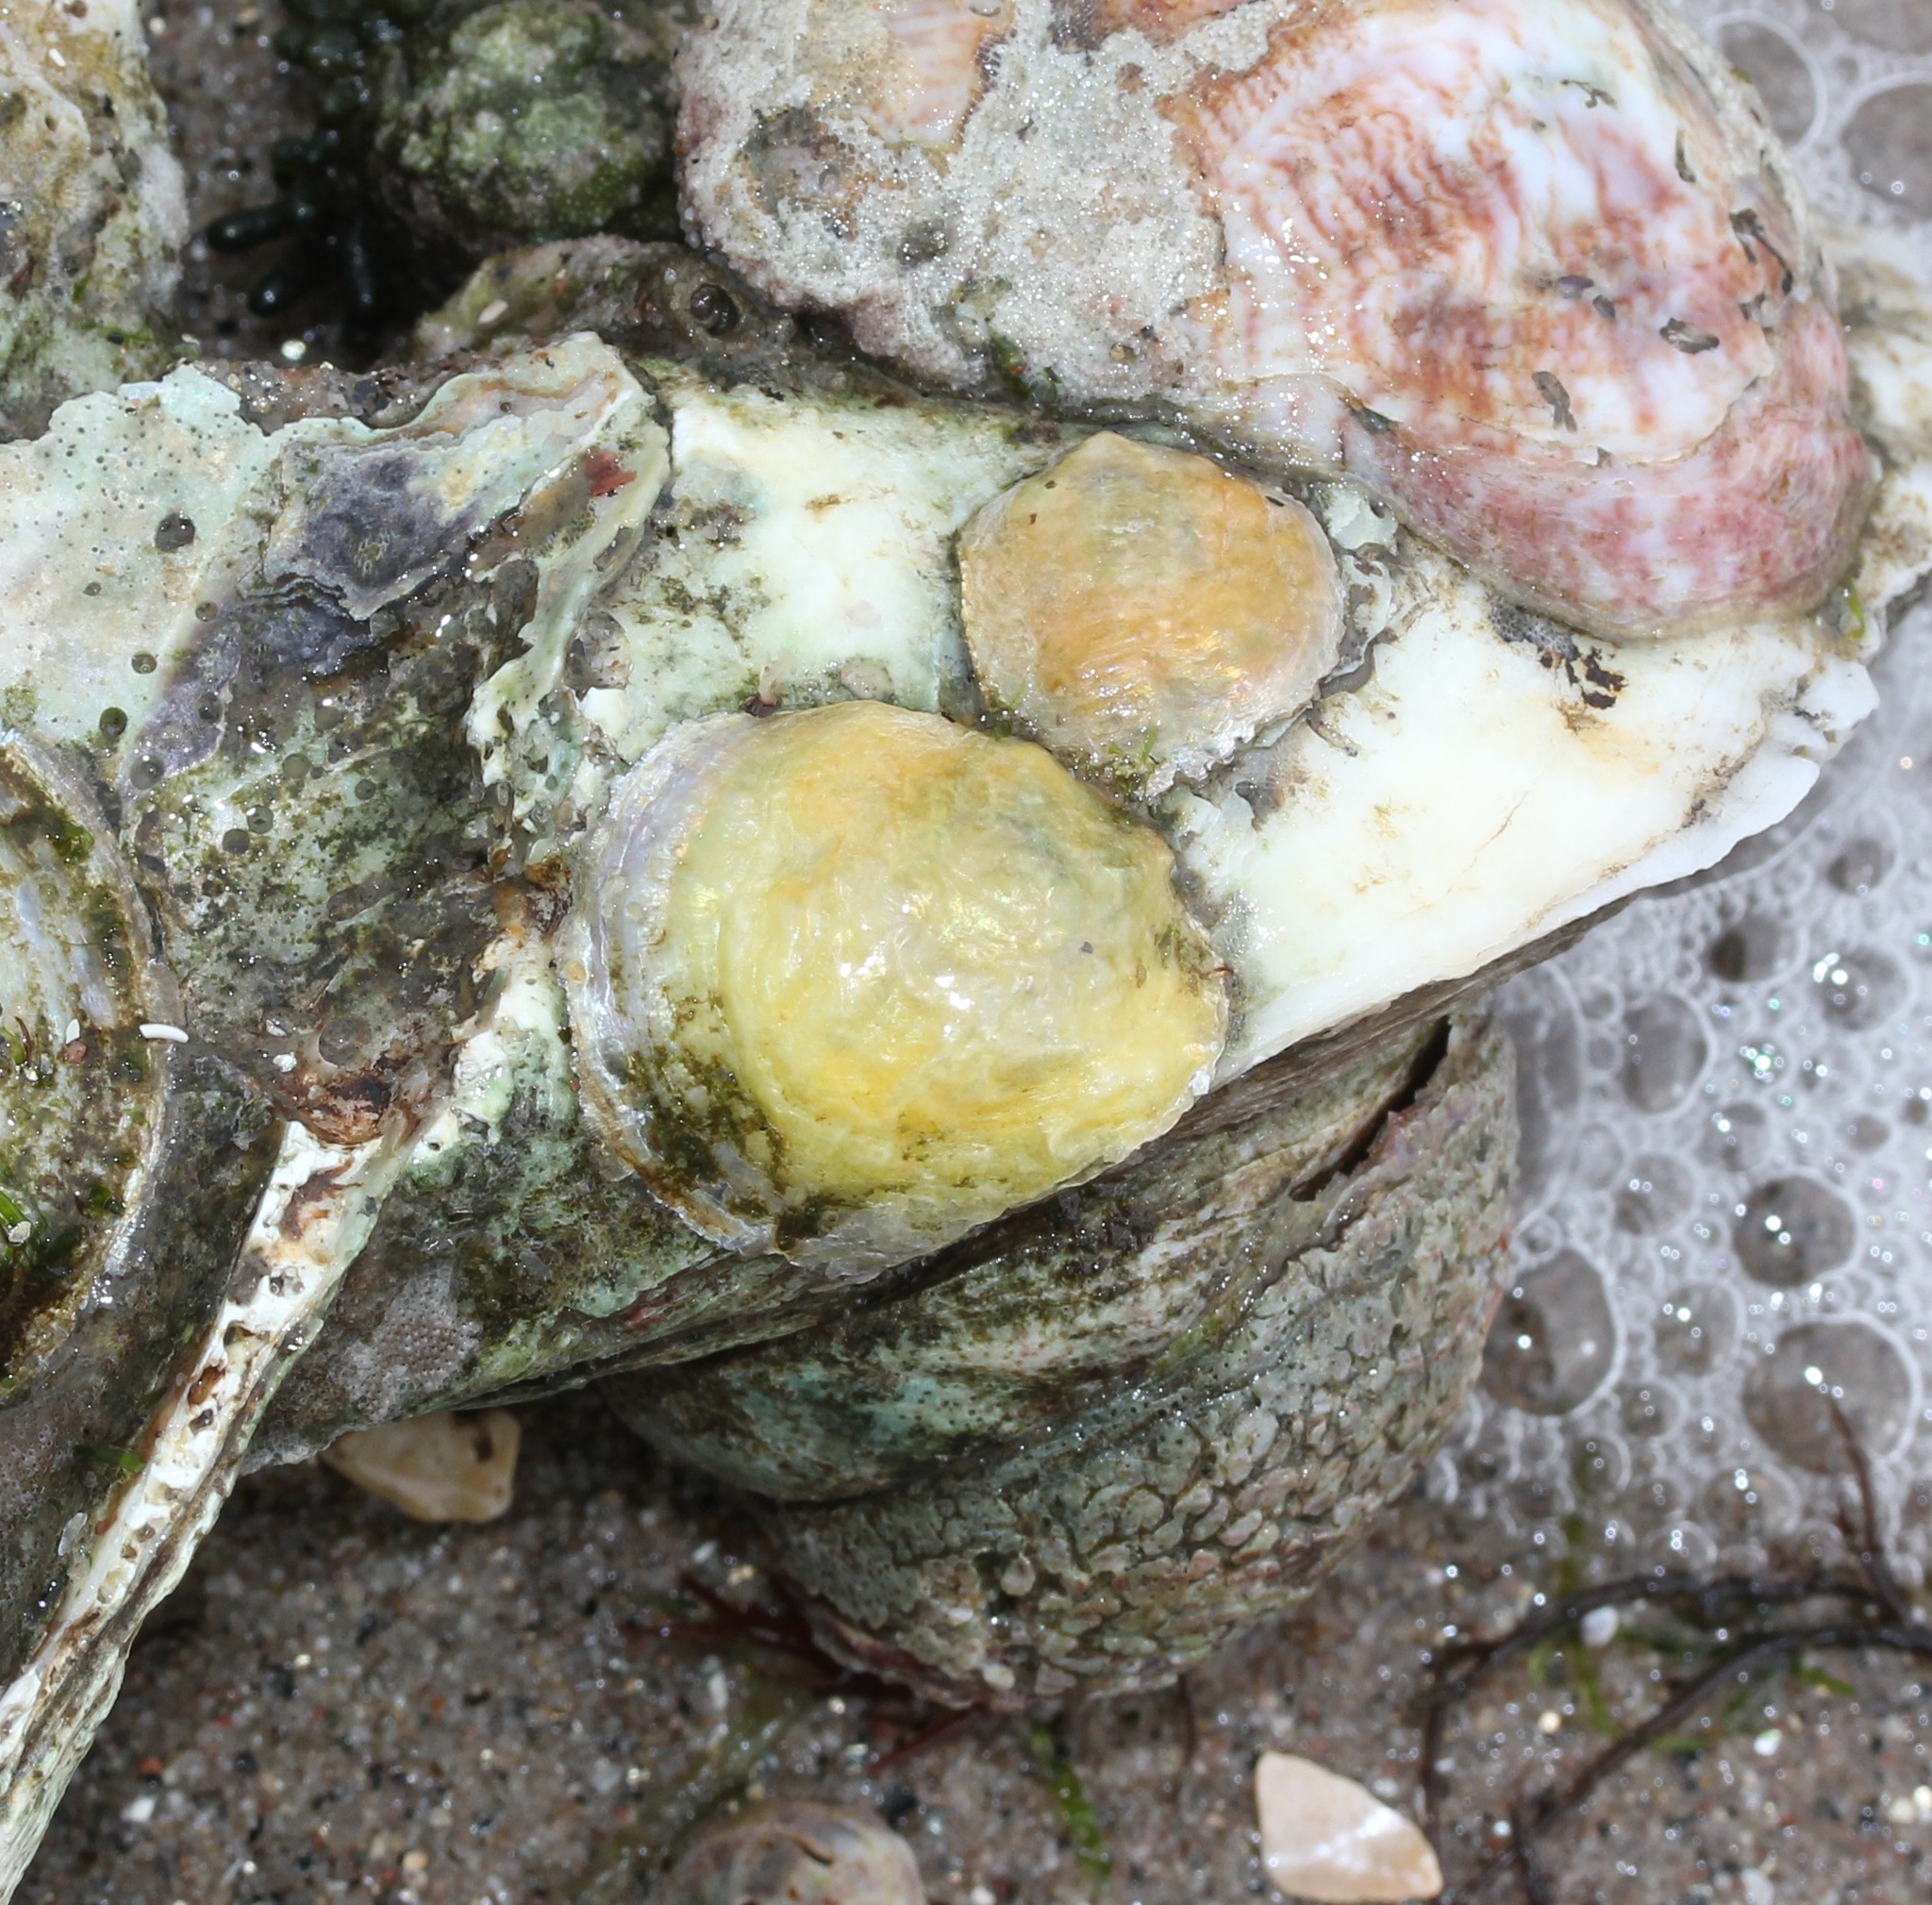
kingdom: Animalia
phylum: Mollusca
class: Bivalvia
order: Pectinida
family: Anomiidae
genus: Anomia
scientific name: Anomia simplex
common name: Common jingle shell
